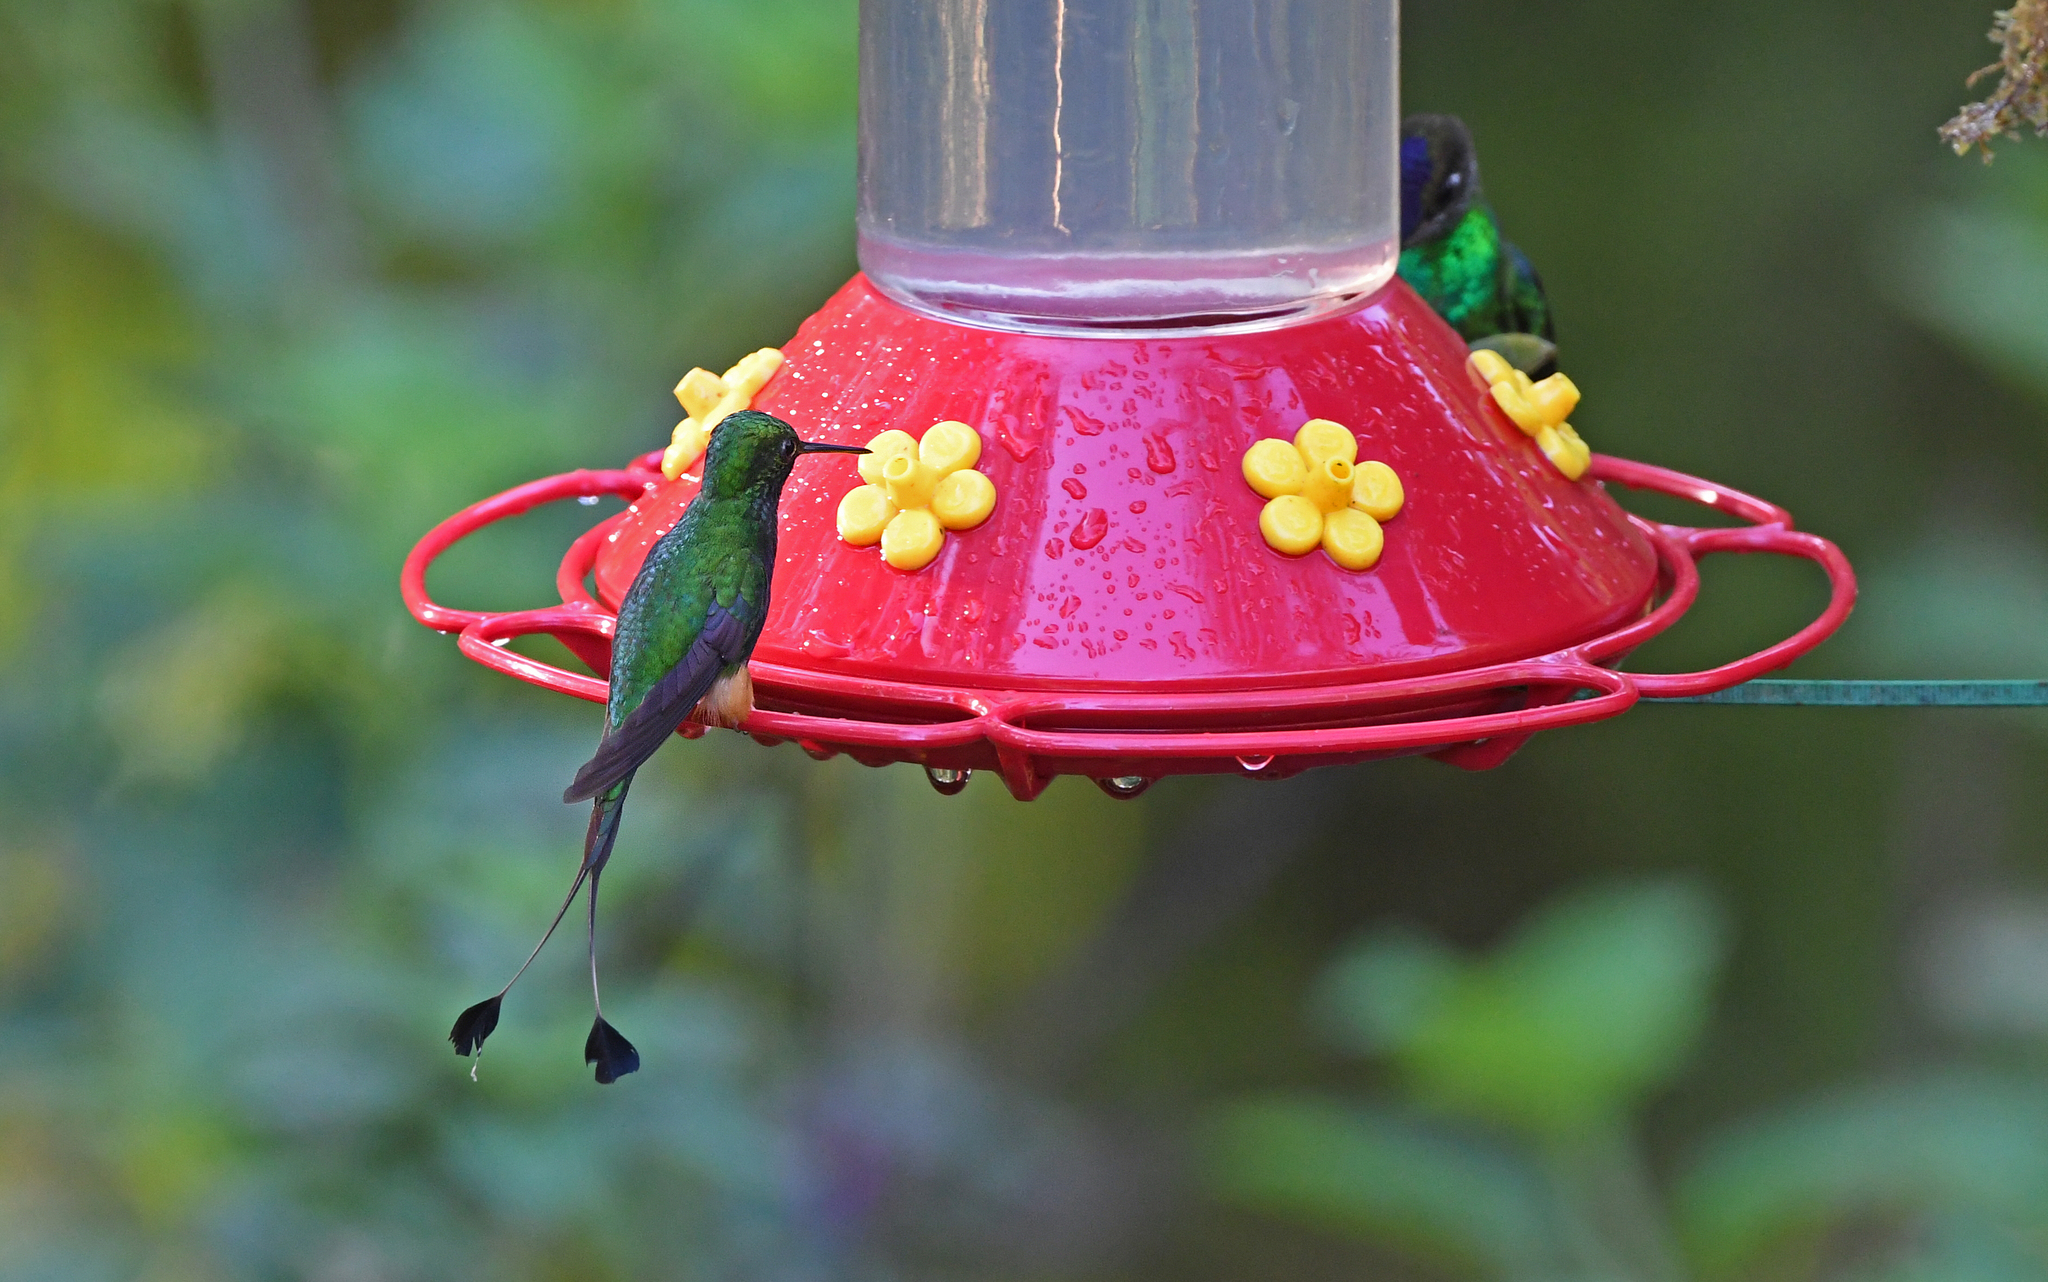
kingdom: Animalia
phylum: Chordata
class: Aves
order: Apodiformes
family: Trochilidae
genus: Ocreatus
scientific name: Ocreatus addae
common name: Rufous-booted racket-tail
